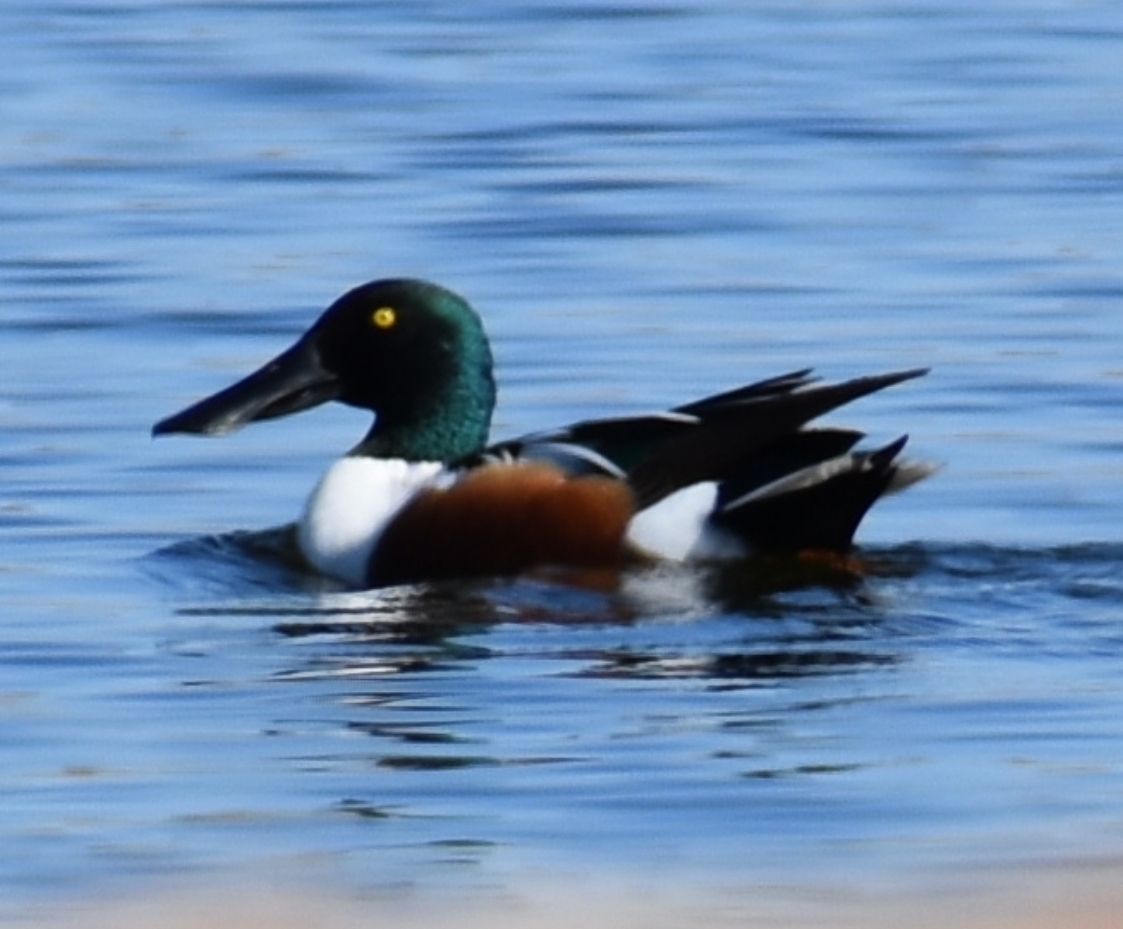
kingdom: Animalia
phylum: Chordata
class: Aves
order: Anseriformes
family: Anatidae
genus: Spatula
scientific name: Spatula clypeata
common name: Northern shoveler
